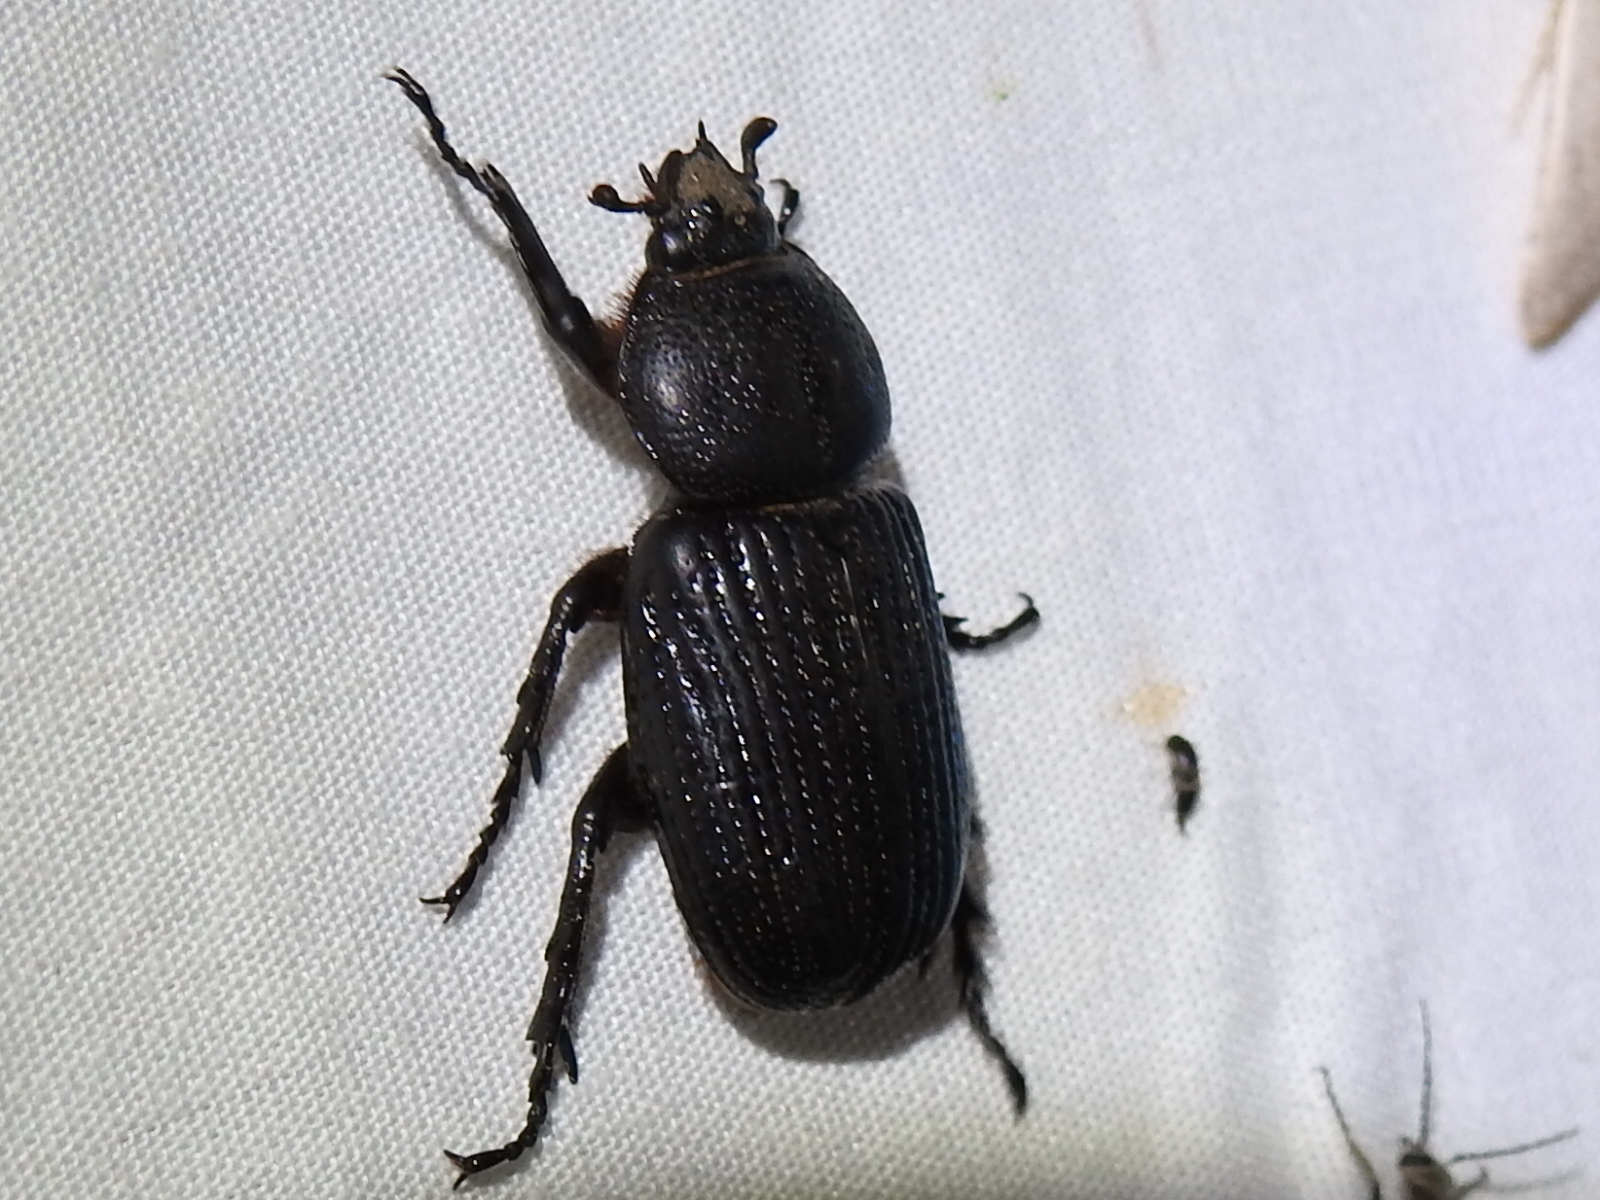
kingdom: Animalia
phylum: Arthropoda
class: Insecta
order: Coleoptera
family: Scarabaeidae
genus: Hemiphileurus
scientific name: Hemiphileurus illatus
